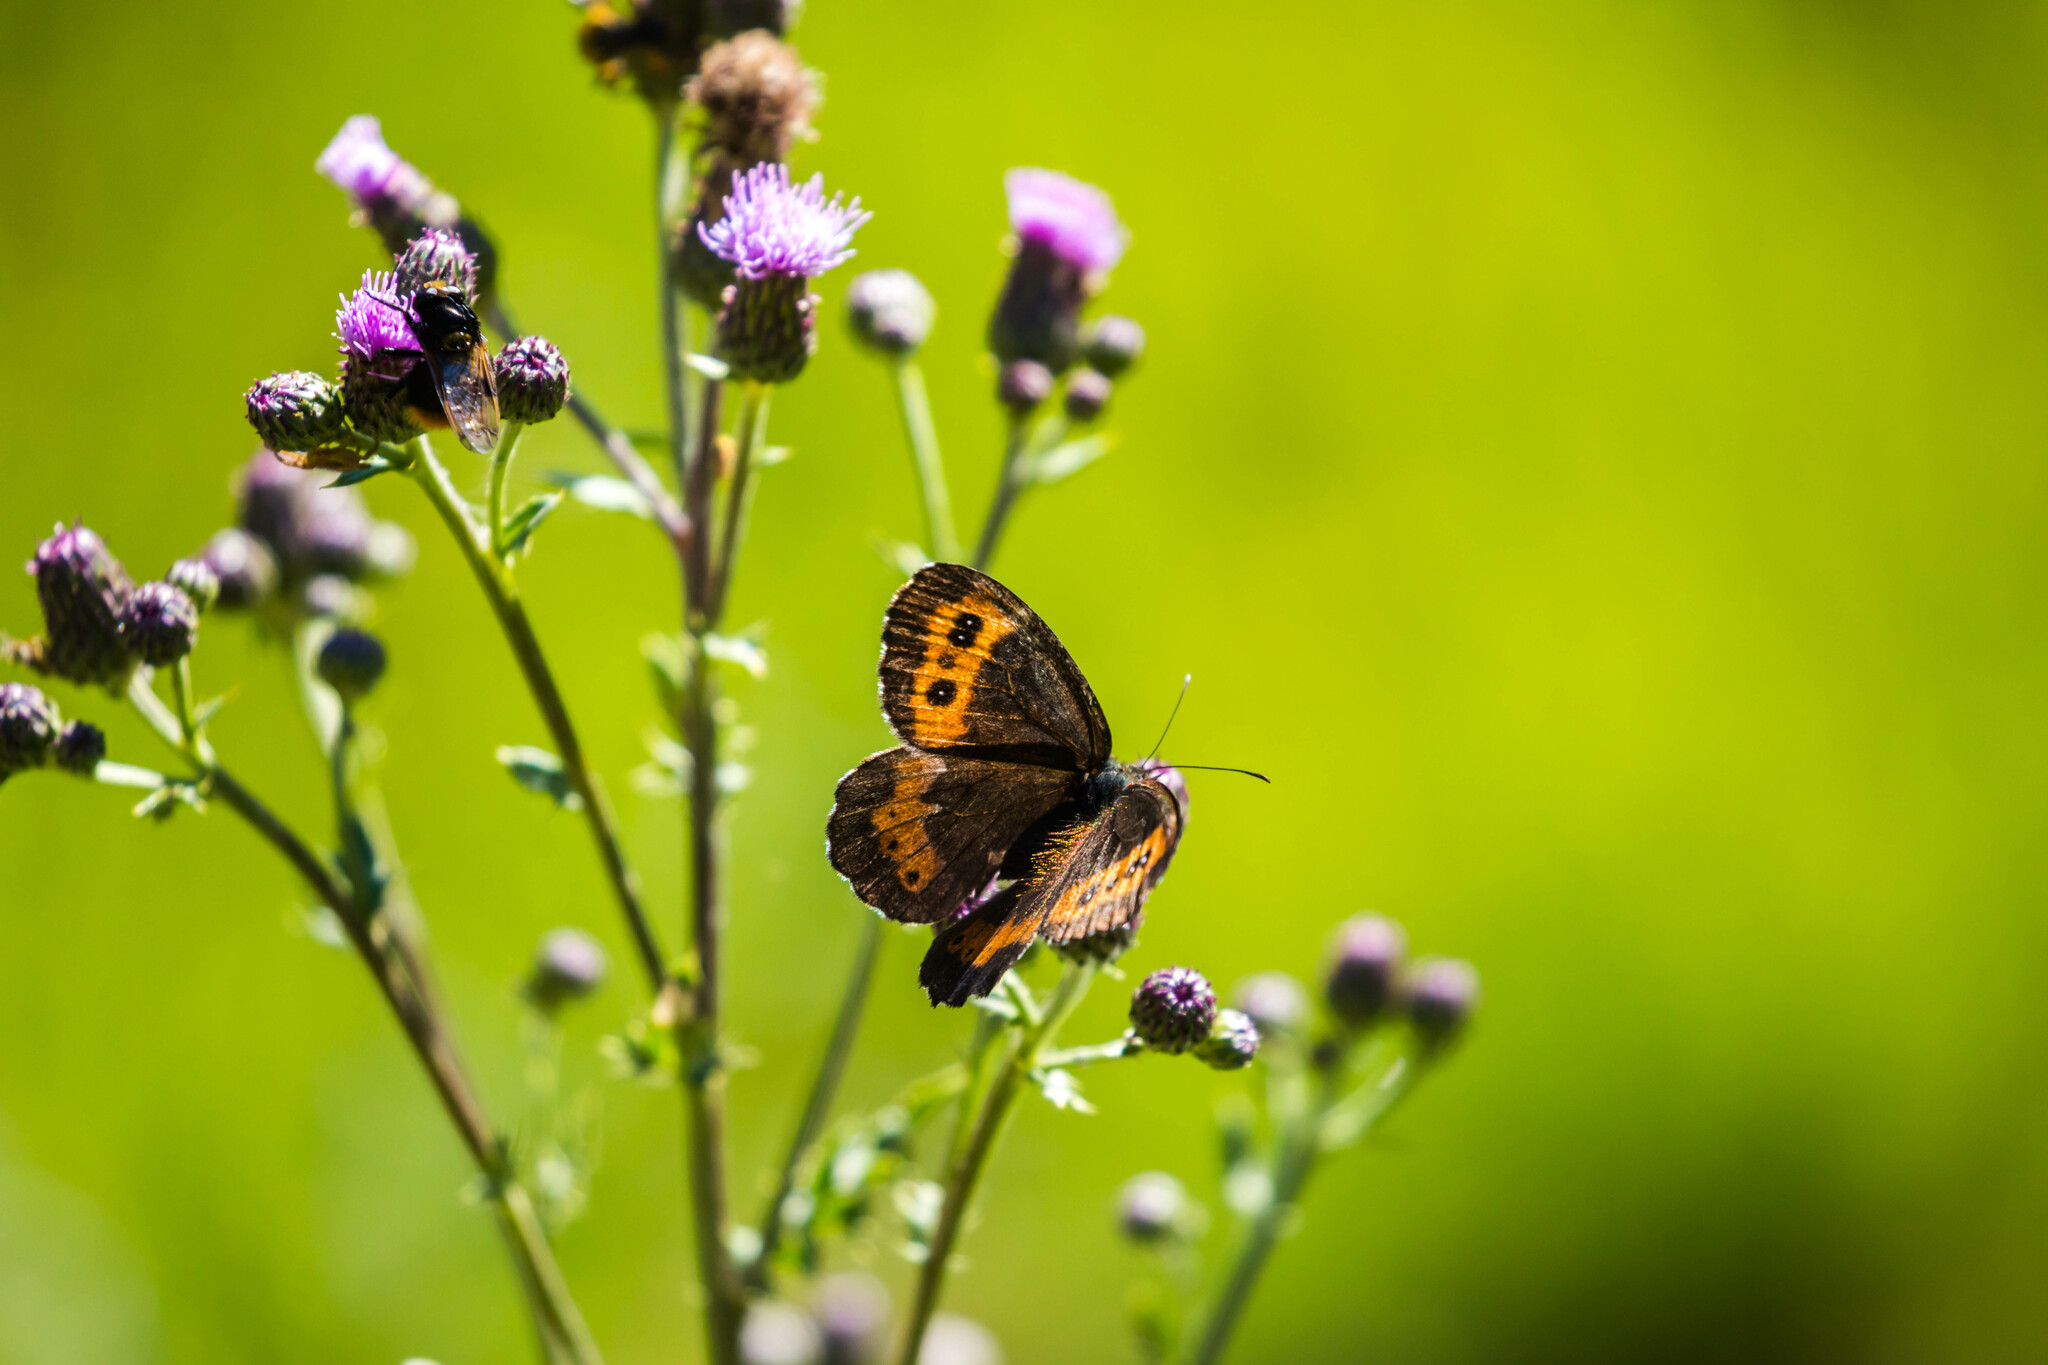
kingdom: Animalia
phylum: Arthropoda
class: Insecta
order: Lepidoptera
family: Nymphalidae
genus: Erebia
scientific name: Erebia ligea
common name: Arran brown
